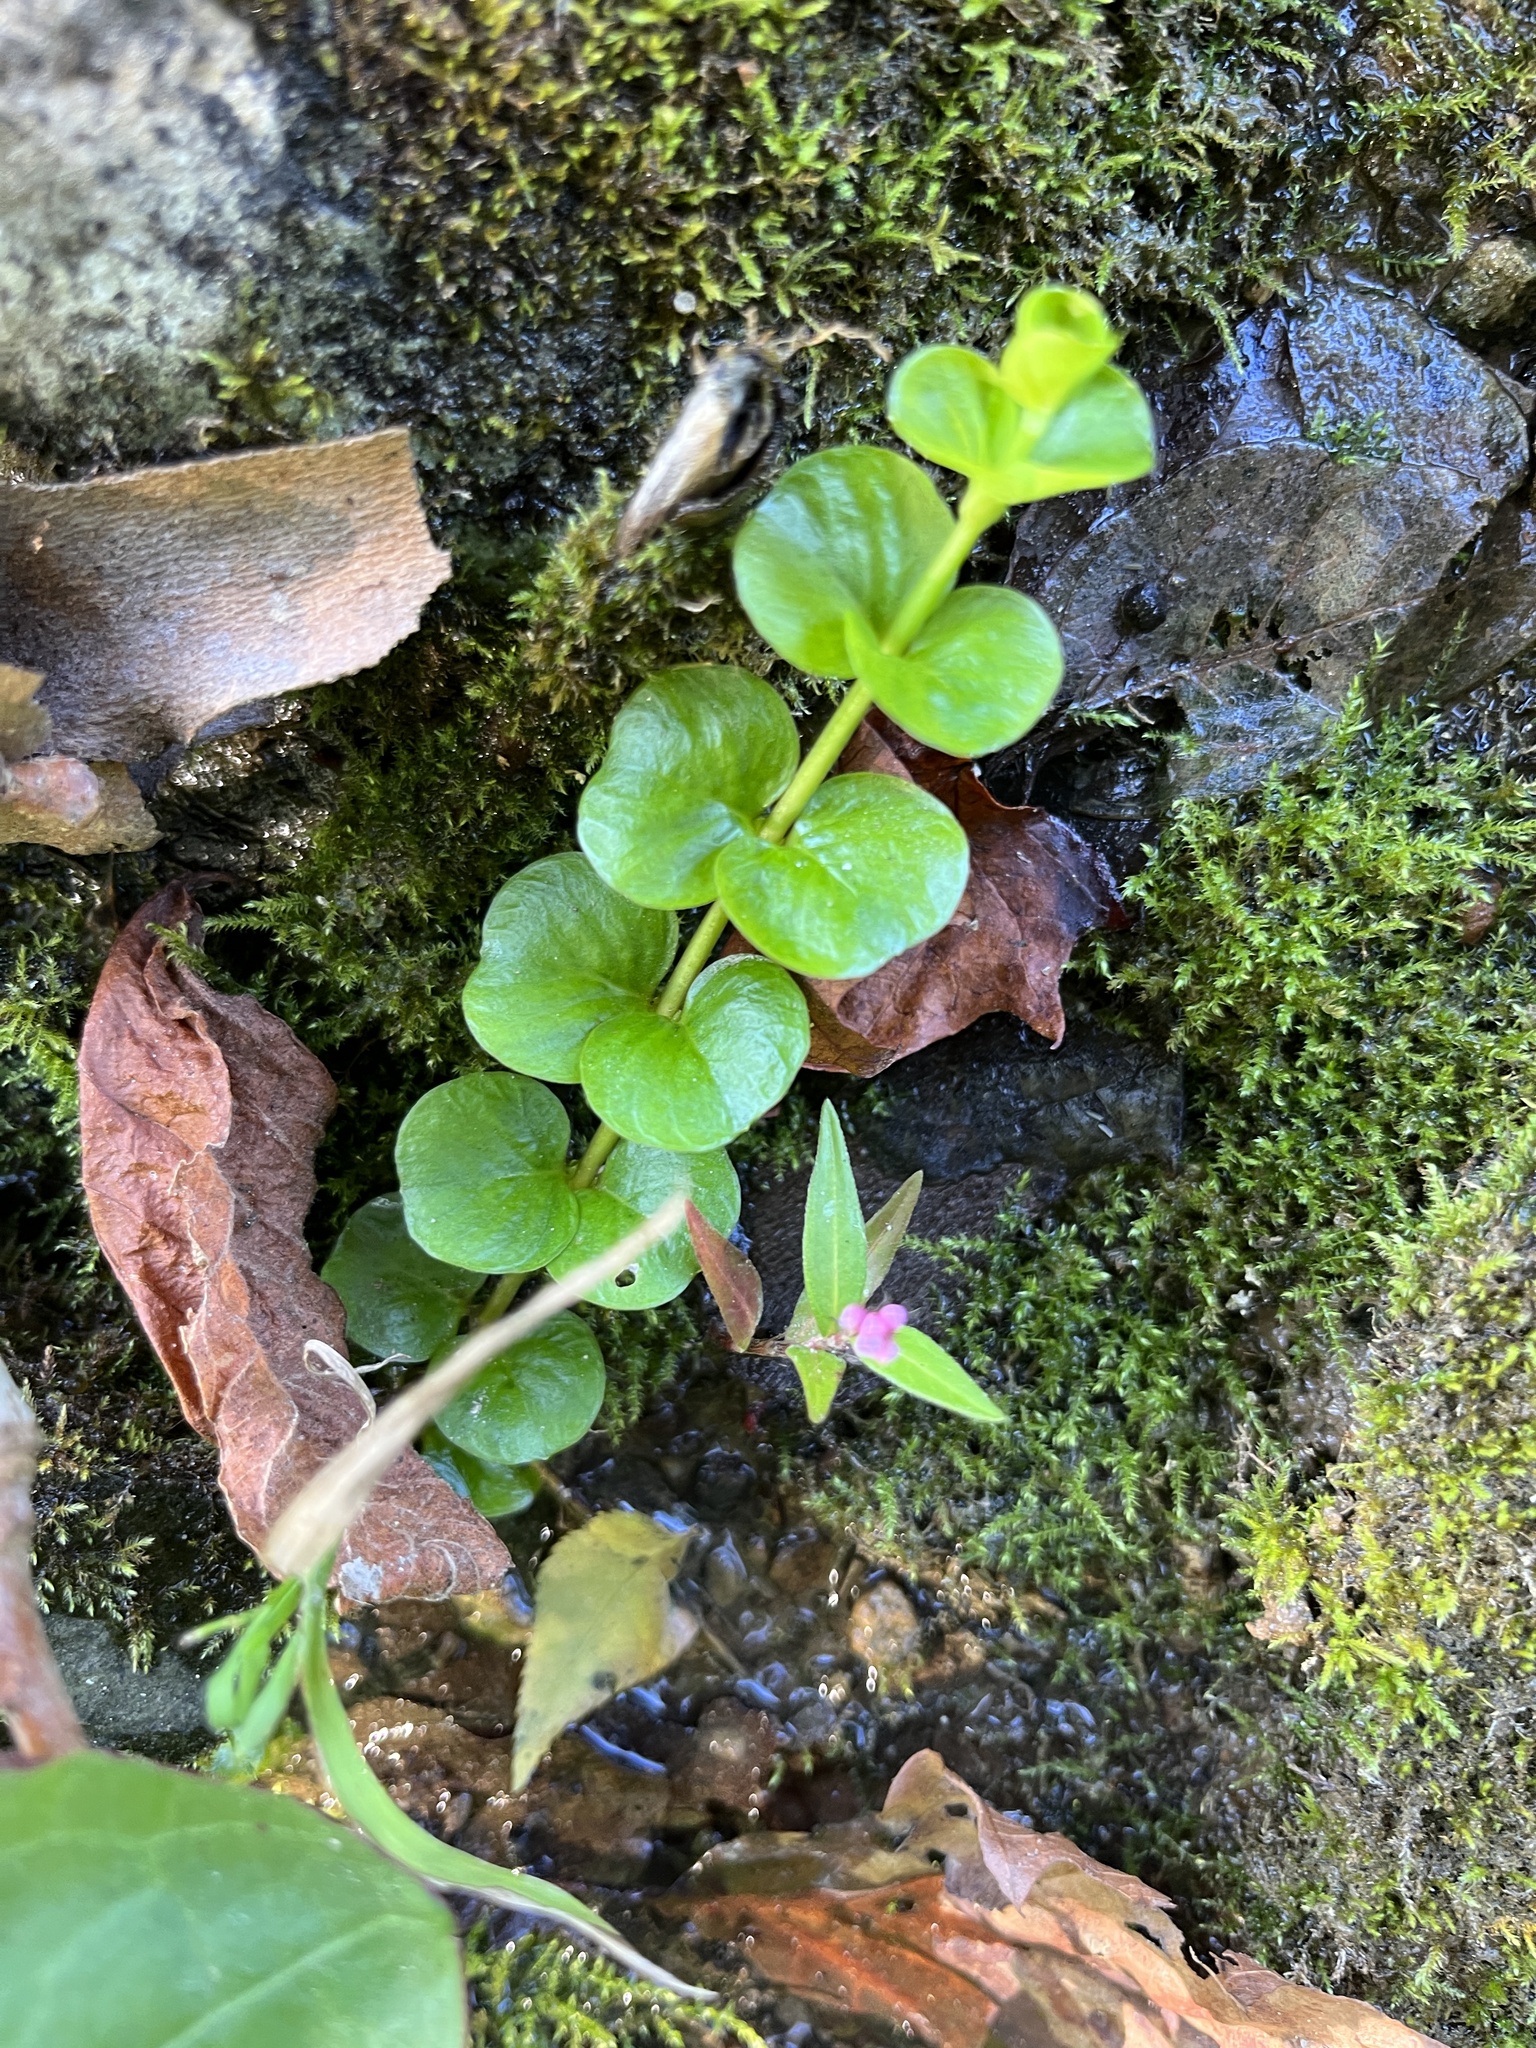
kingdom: Plantae
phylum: Tracheophyta
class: Magnoliopsida
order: Ericales
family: Primulaceae
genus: Lysimachia
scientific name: Lysimachia nummularia
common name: Moneywort
